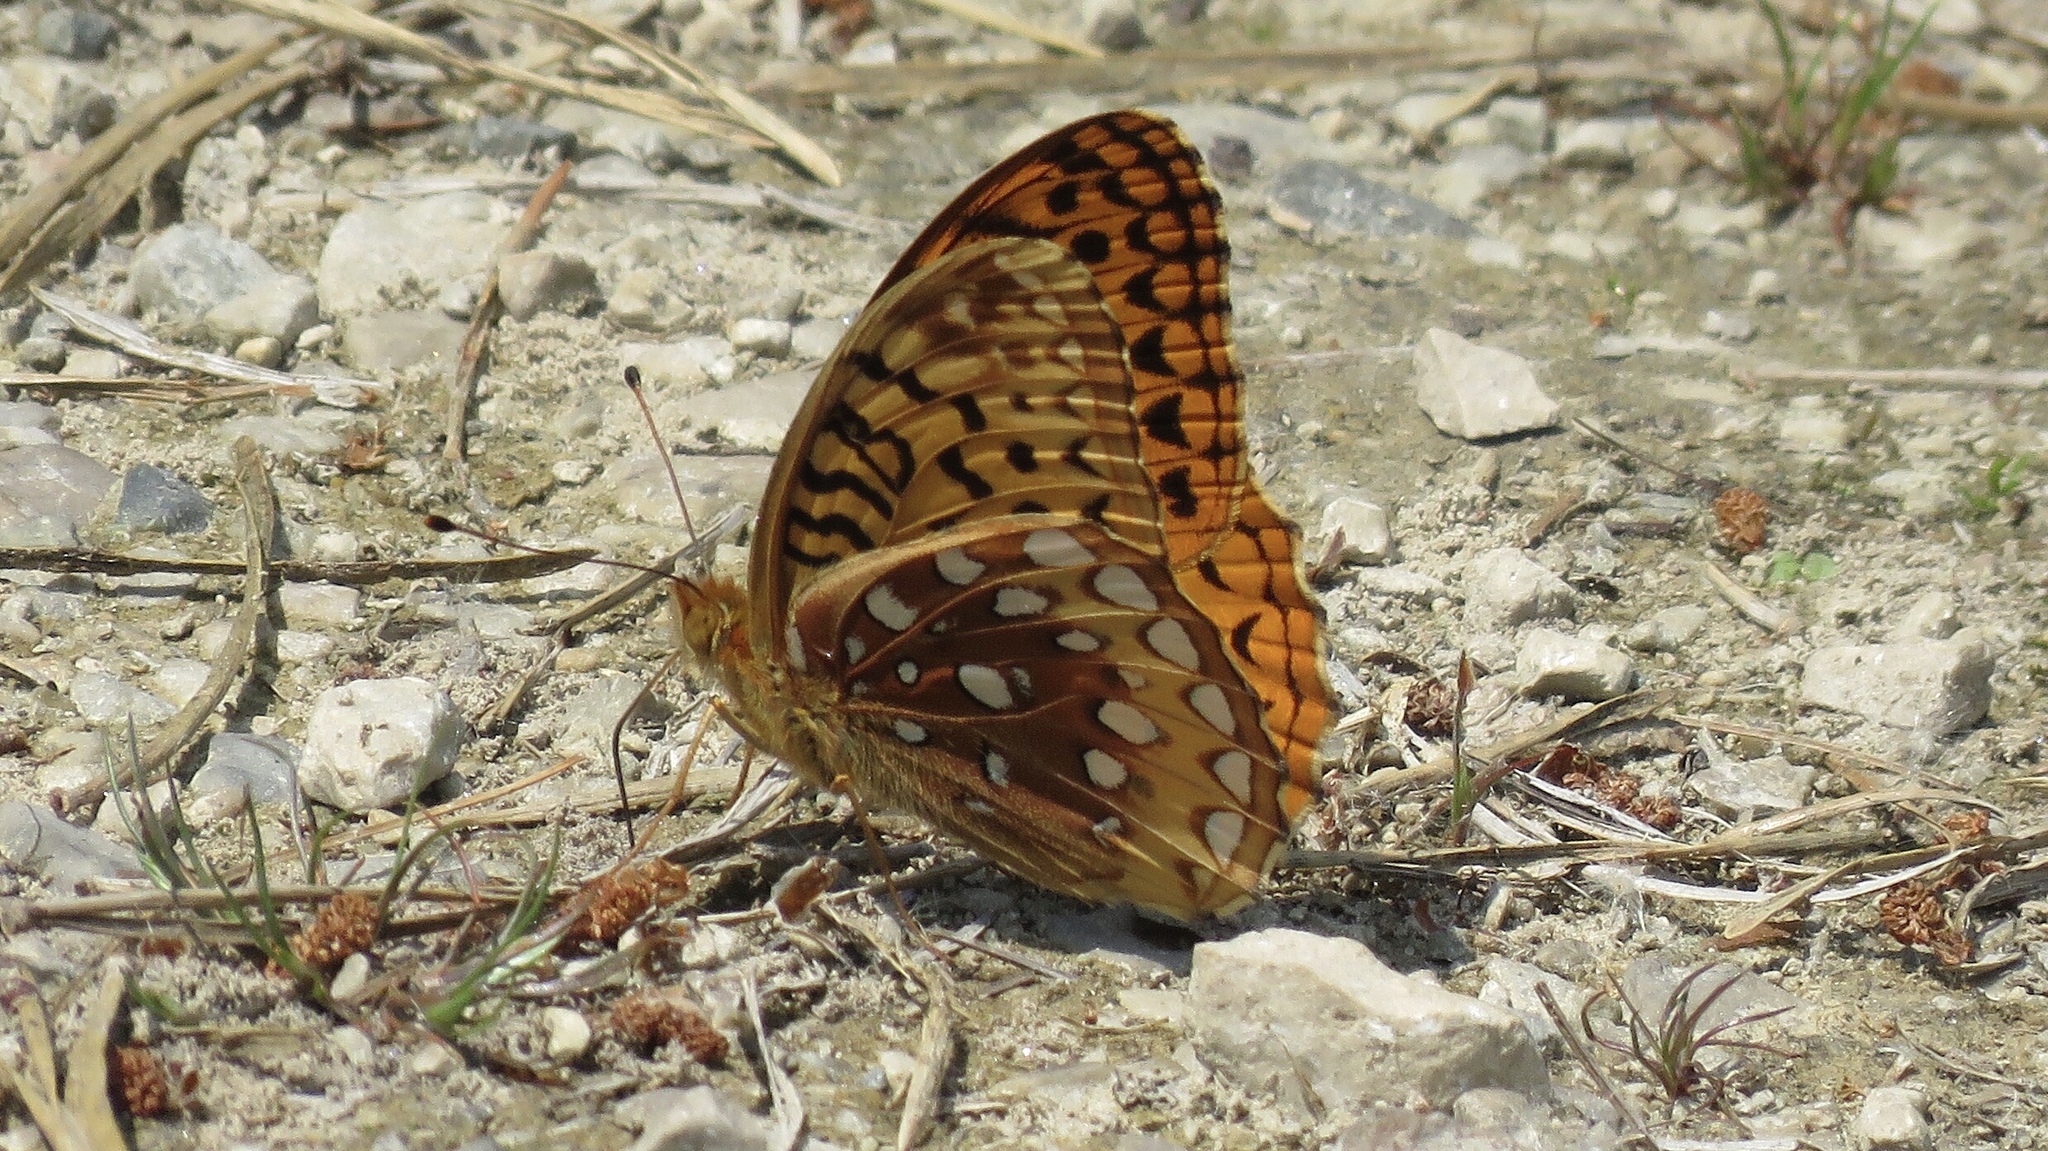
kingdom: Animalia
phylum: Arthropoda
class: Insecta
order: Lepidoptera
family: Nymphalidae
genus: Speyeria
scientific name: Speyeria cybele
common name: Great spangled fritillary
